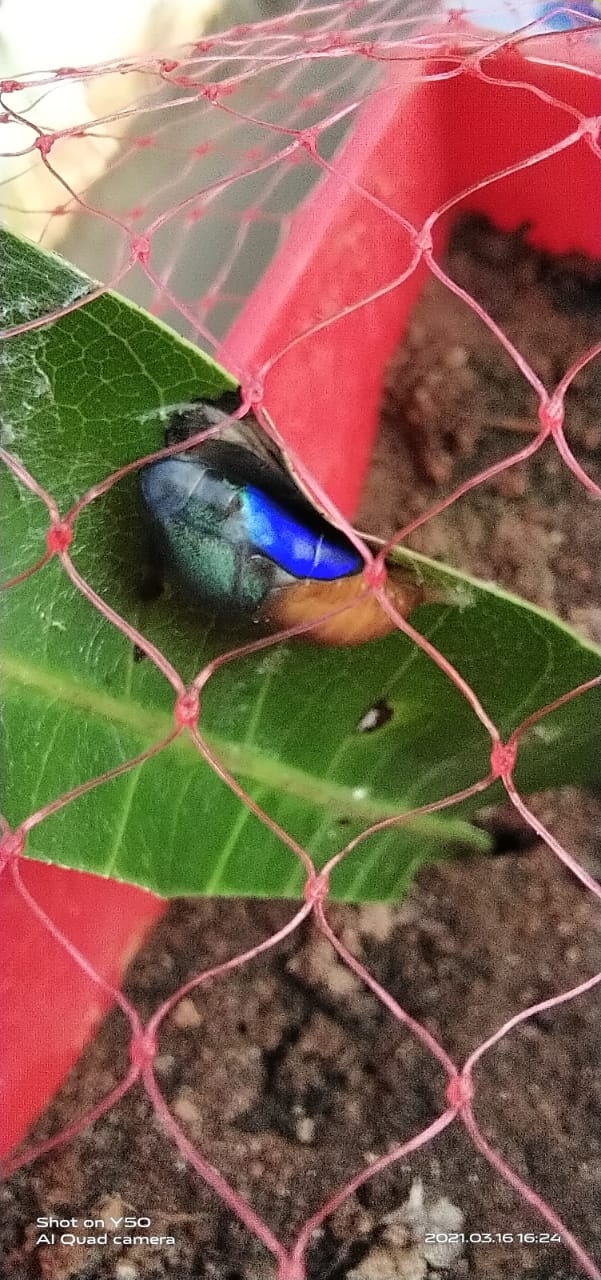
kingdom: Animalia
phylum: Arthropoda
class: Insecta
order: Lepidoptera
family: Lycaenidae
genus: Arhopala
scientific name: Arhopala centaurus
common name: Dull oak-blue
